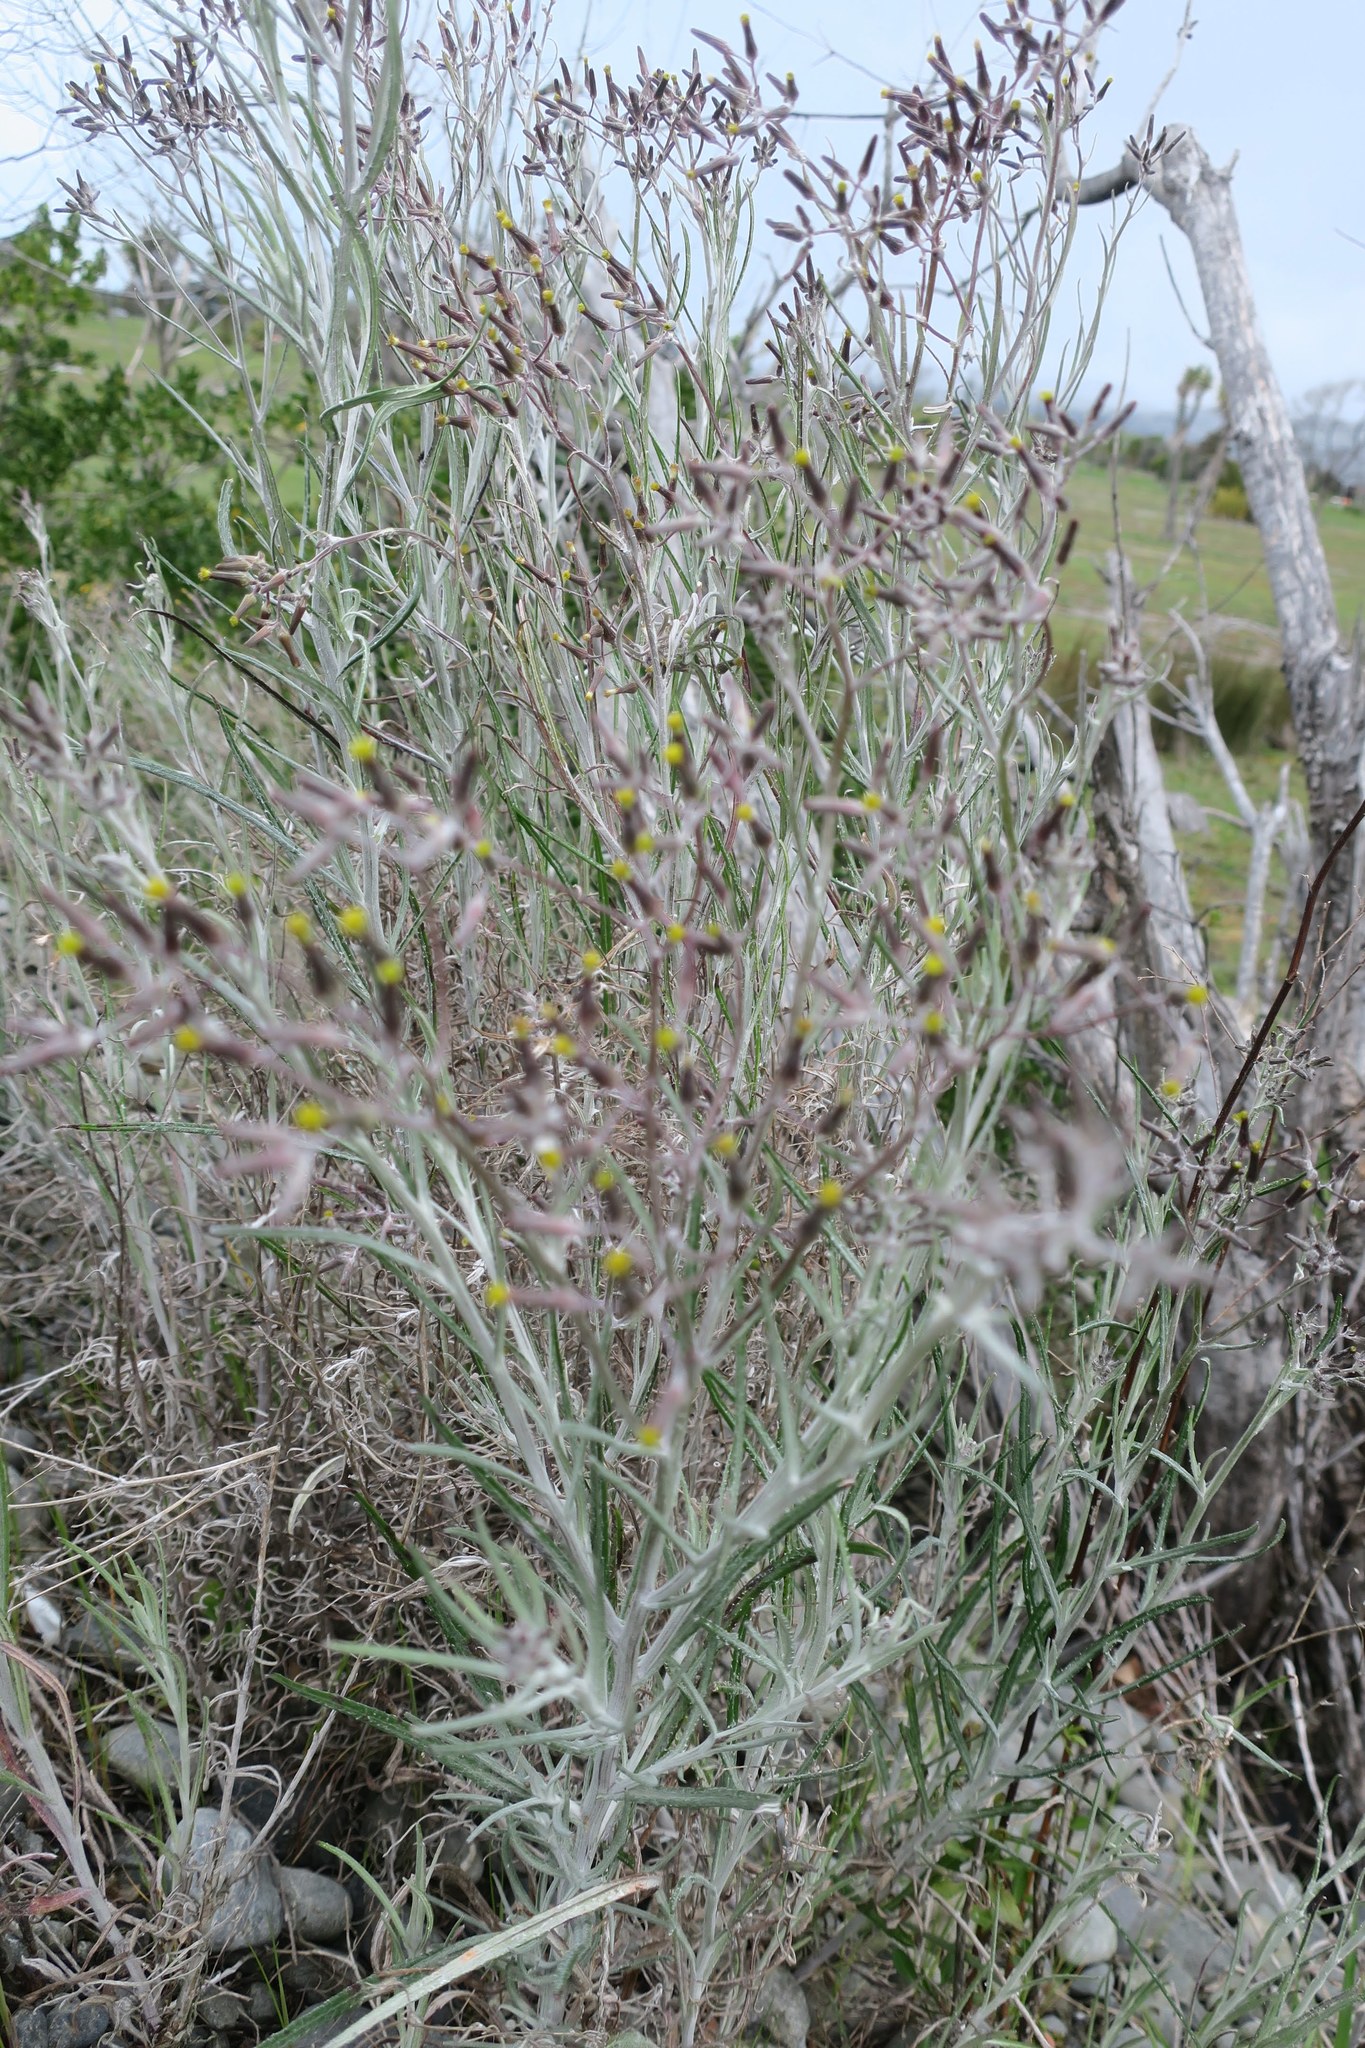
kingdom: Plantae
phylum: Tracheophyta
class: Magnoliopsida
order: Asterales
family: Asteraceae
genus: Senecio
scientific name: Senecio quadridentatus
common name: Cotton fireweed
